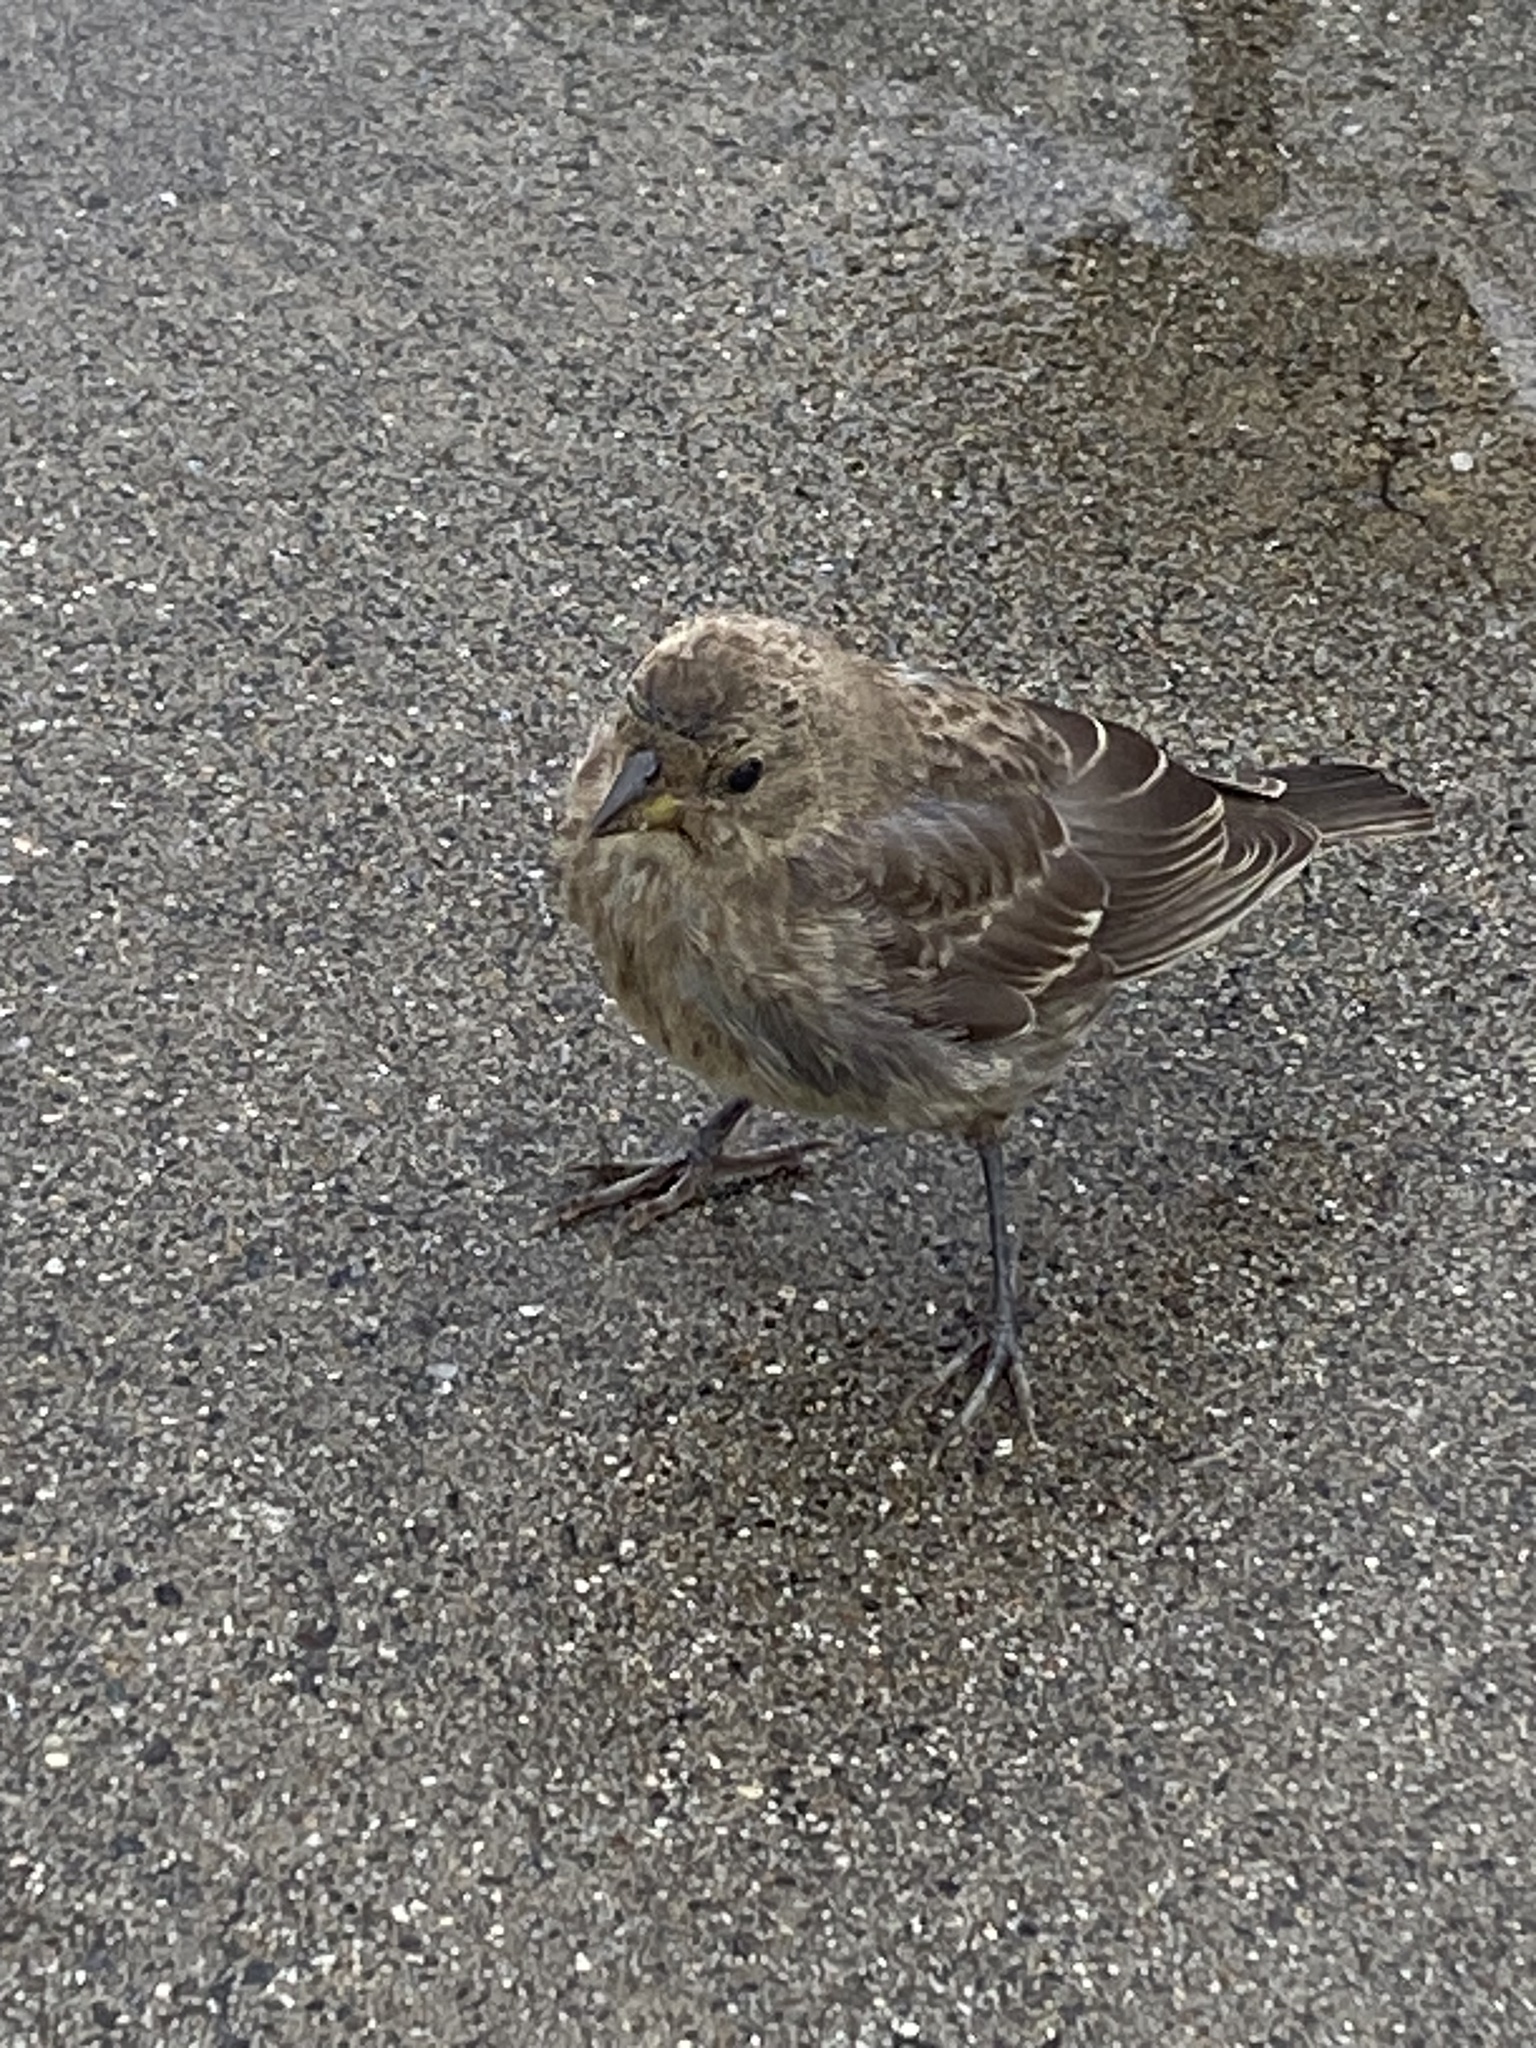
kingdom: Animalia
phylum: Chordata
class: Aves
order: Passeriformes
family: Icteridae
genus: Molothrus
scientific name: Molothrus ater
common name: Brown-headed cowbird
